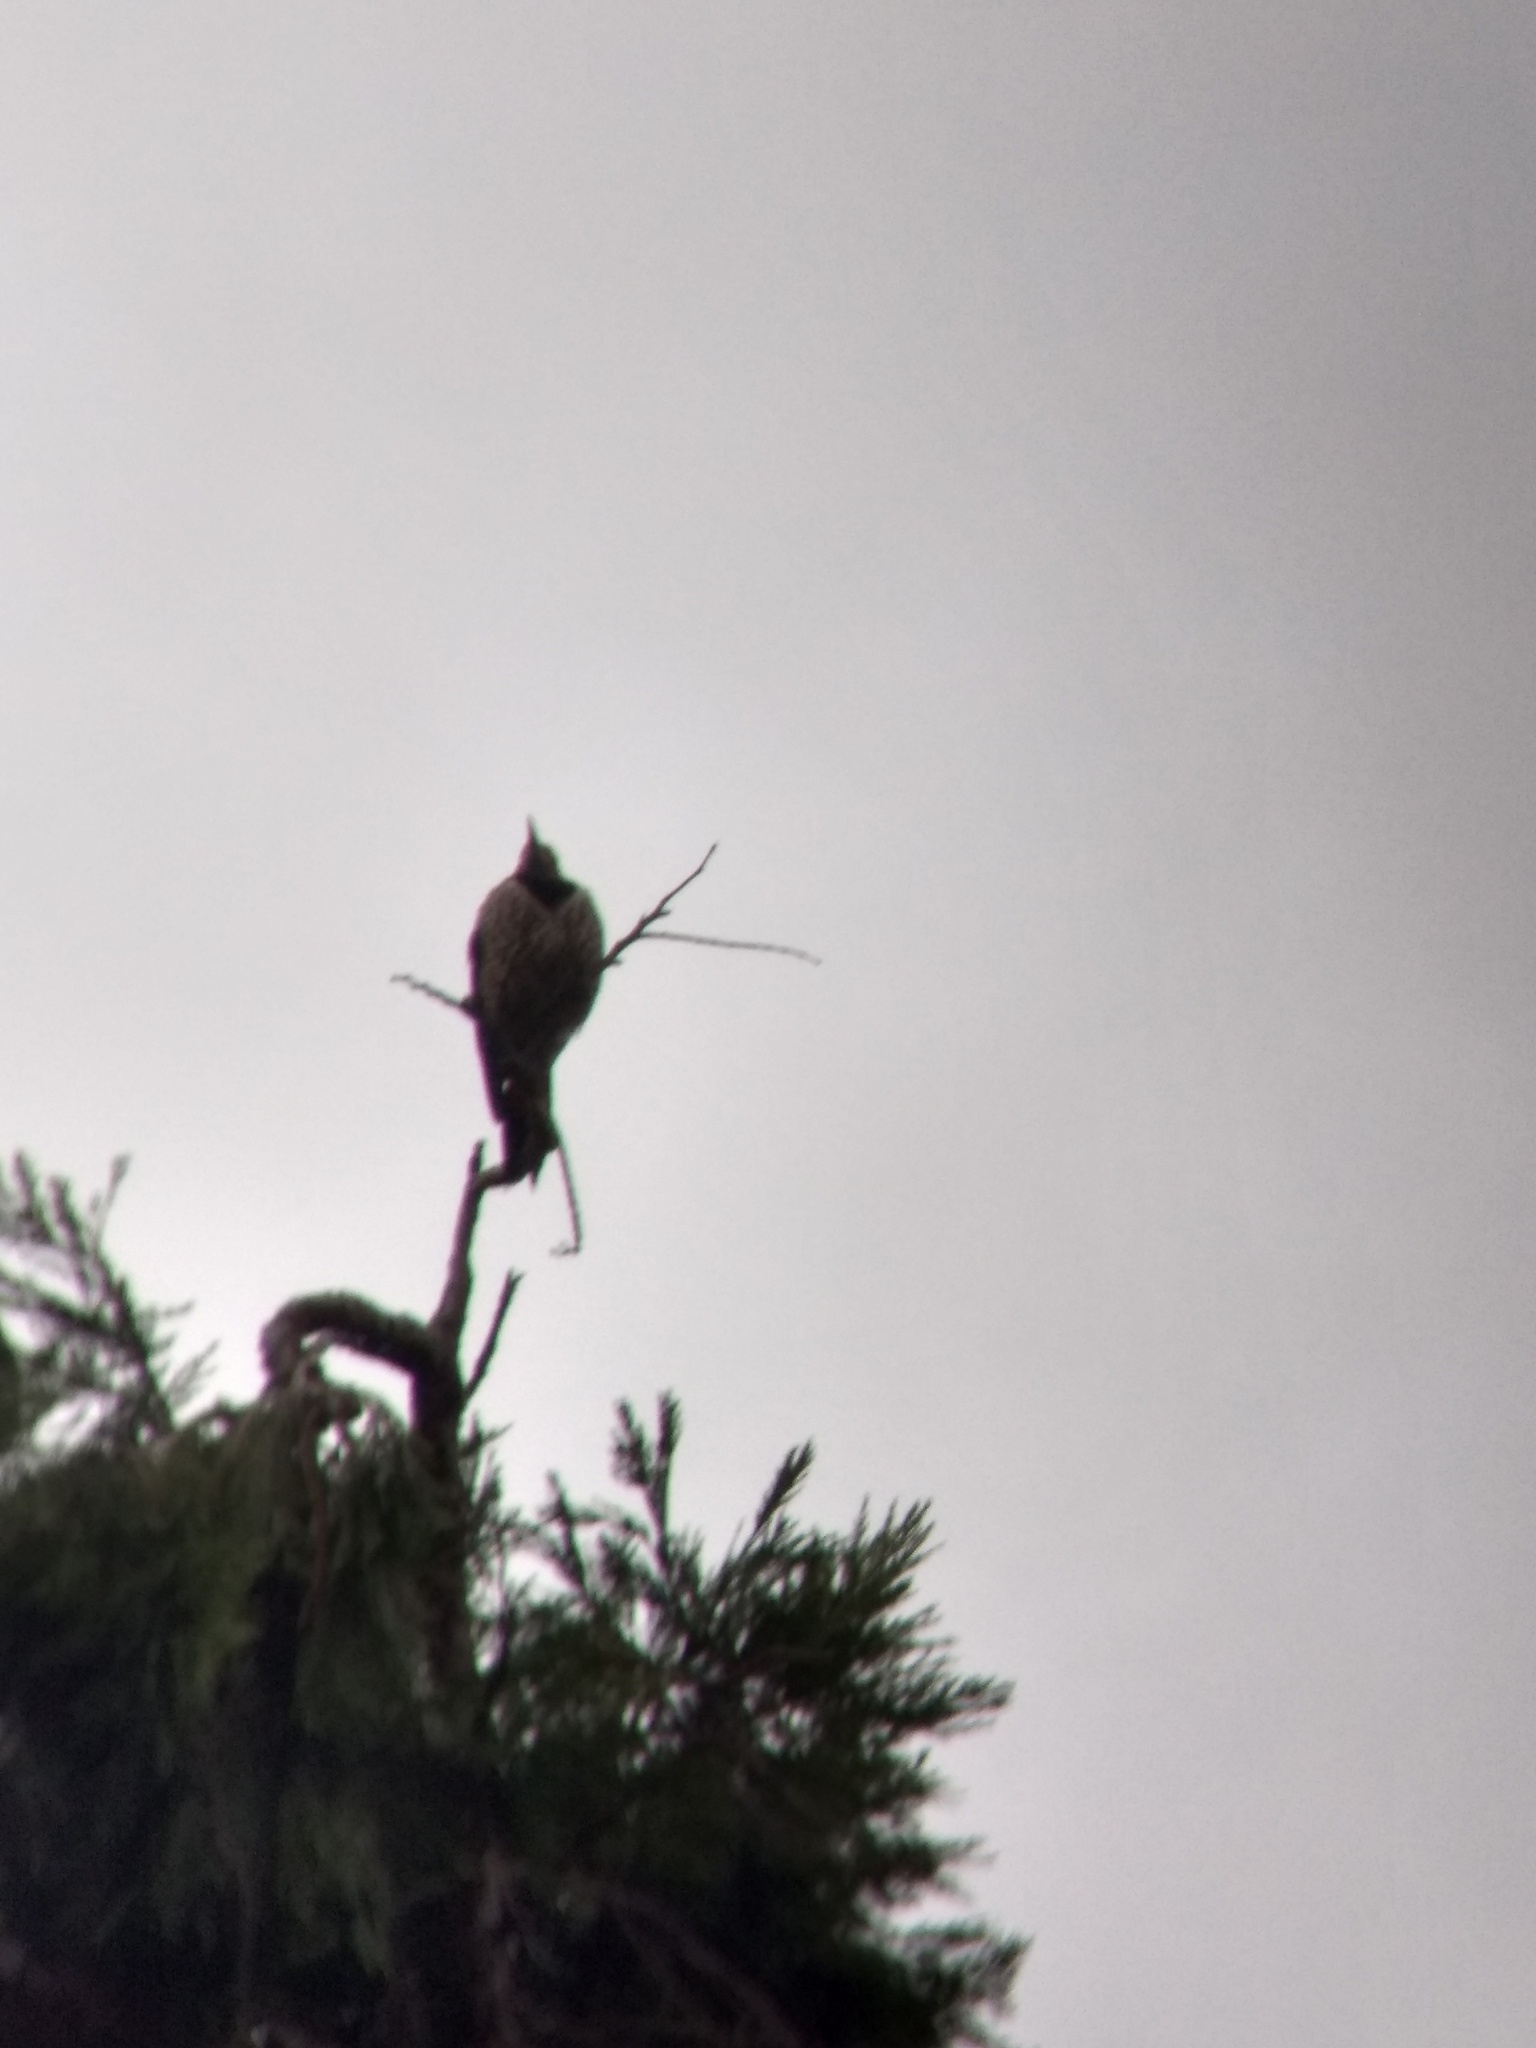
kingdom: Animalia
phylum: Chordata
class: Aves
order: Piciformes
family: Picidae
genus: Colaptes
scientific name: Colaptes auratus
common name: Northern flicker
